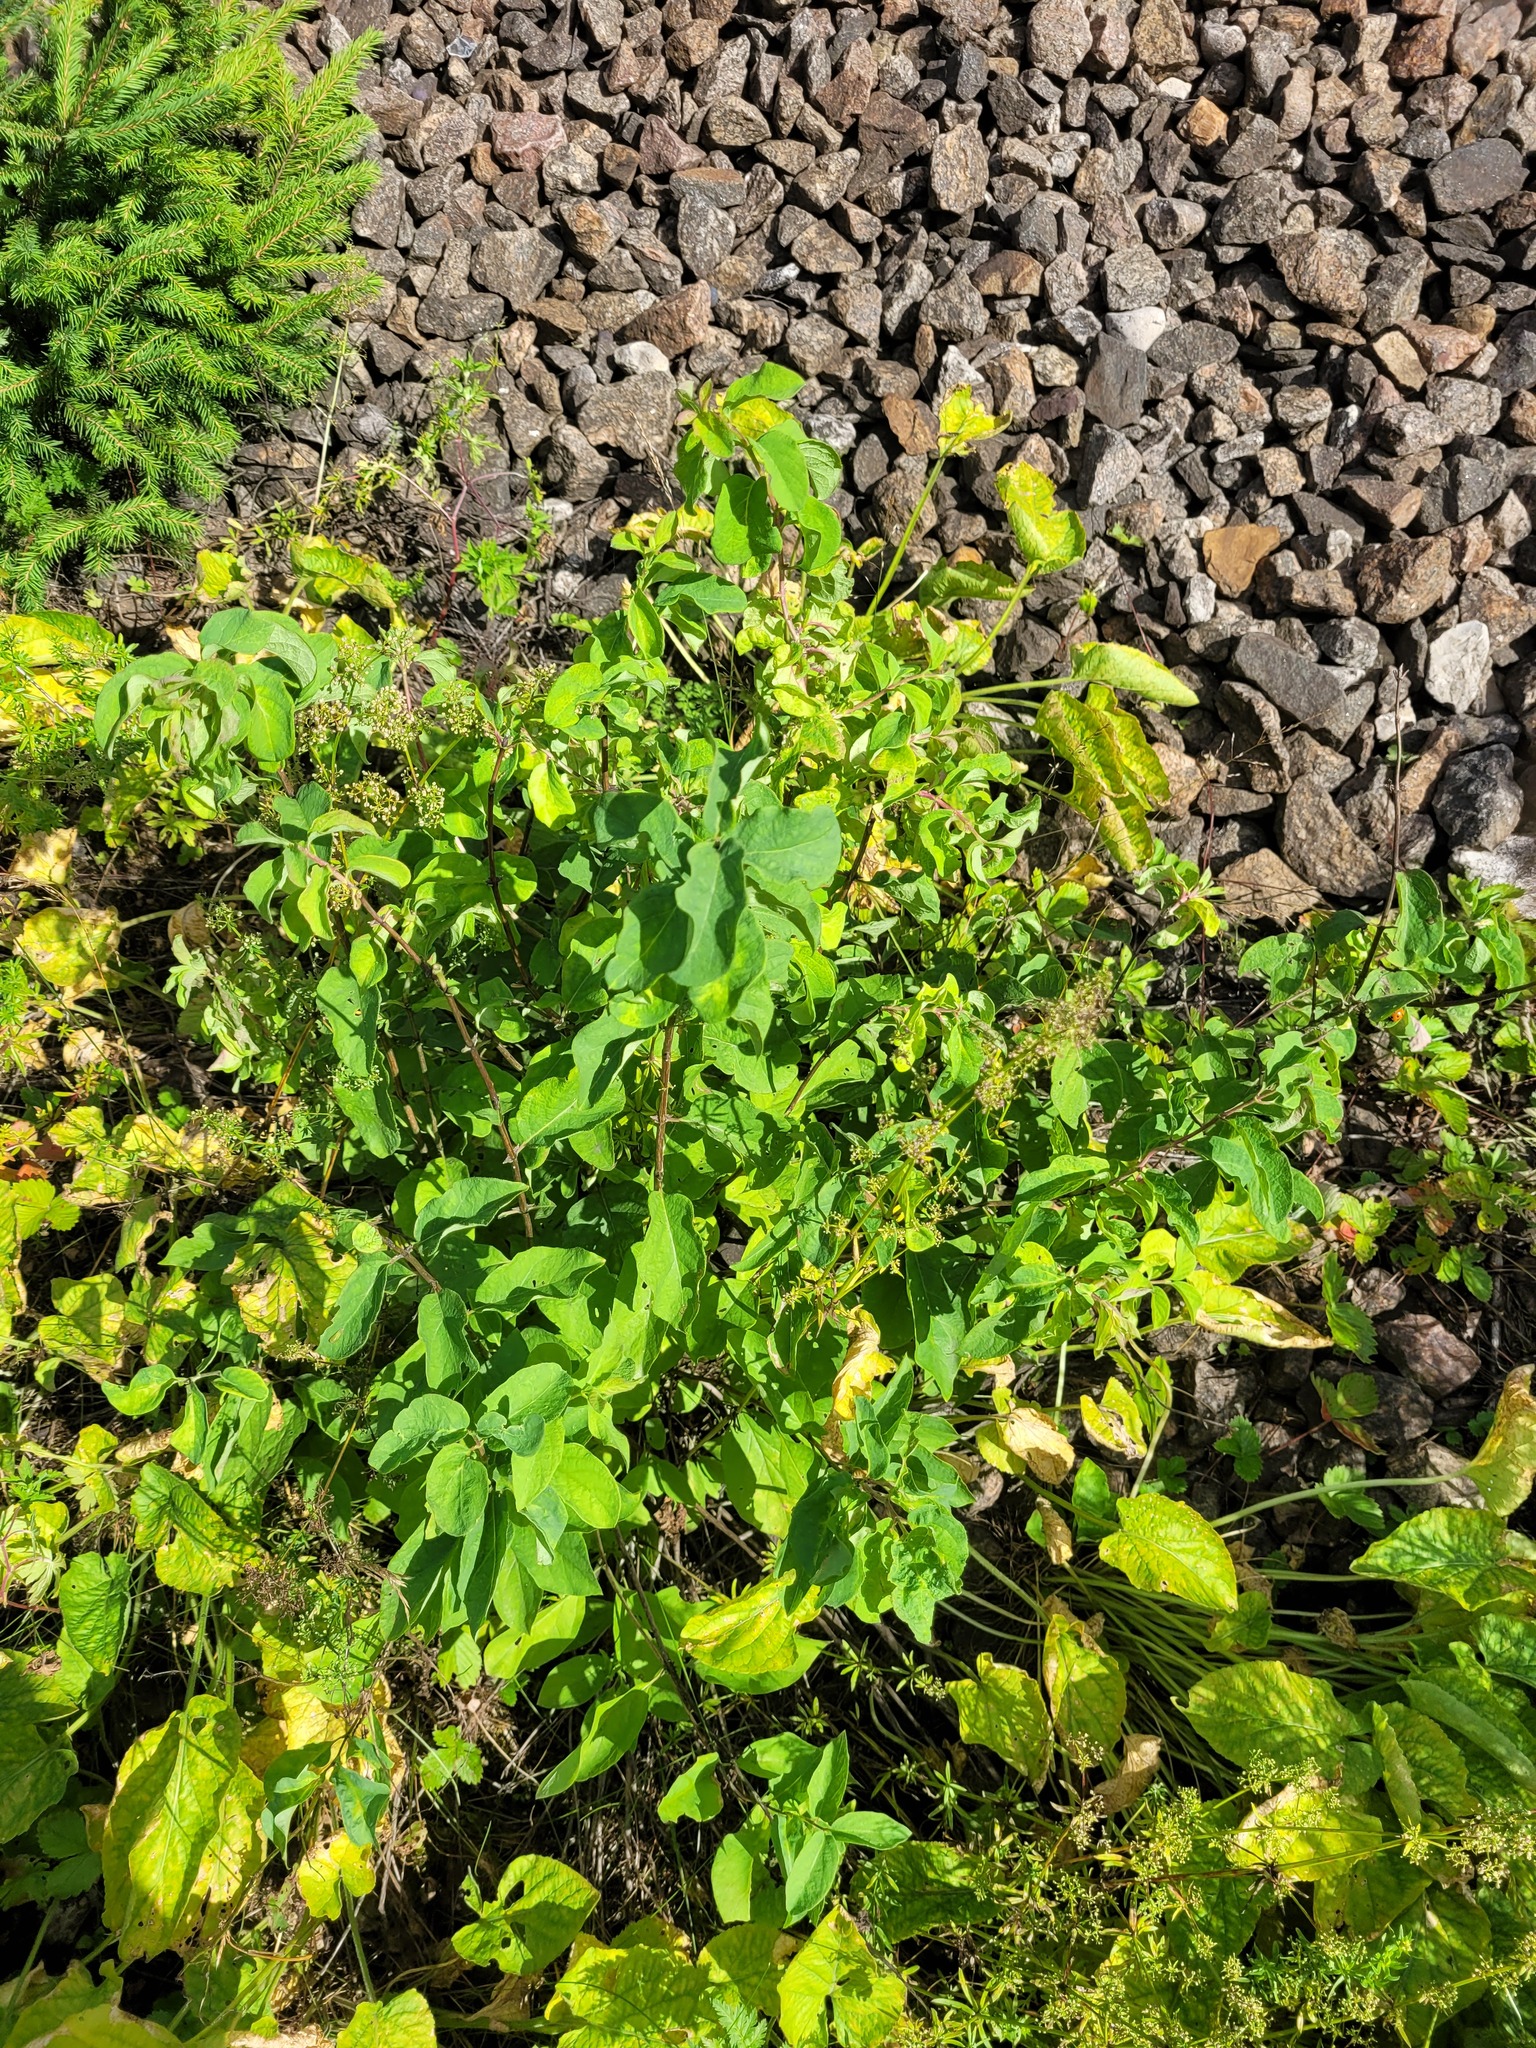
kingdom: Plantae
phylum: Tracheophyta
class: Magnoliopsida
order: Dipsacales
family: Caprifoliaceae
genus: Lonicera
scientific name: Lonicera xylosteum
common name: Fly honeysuckle
